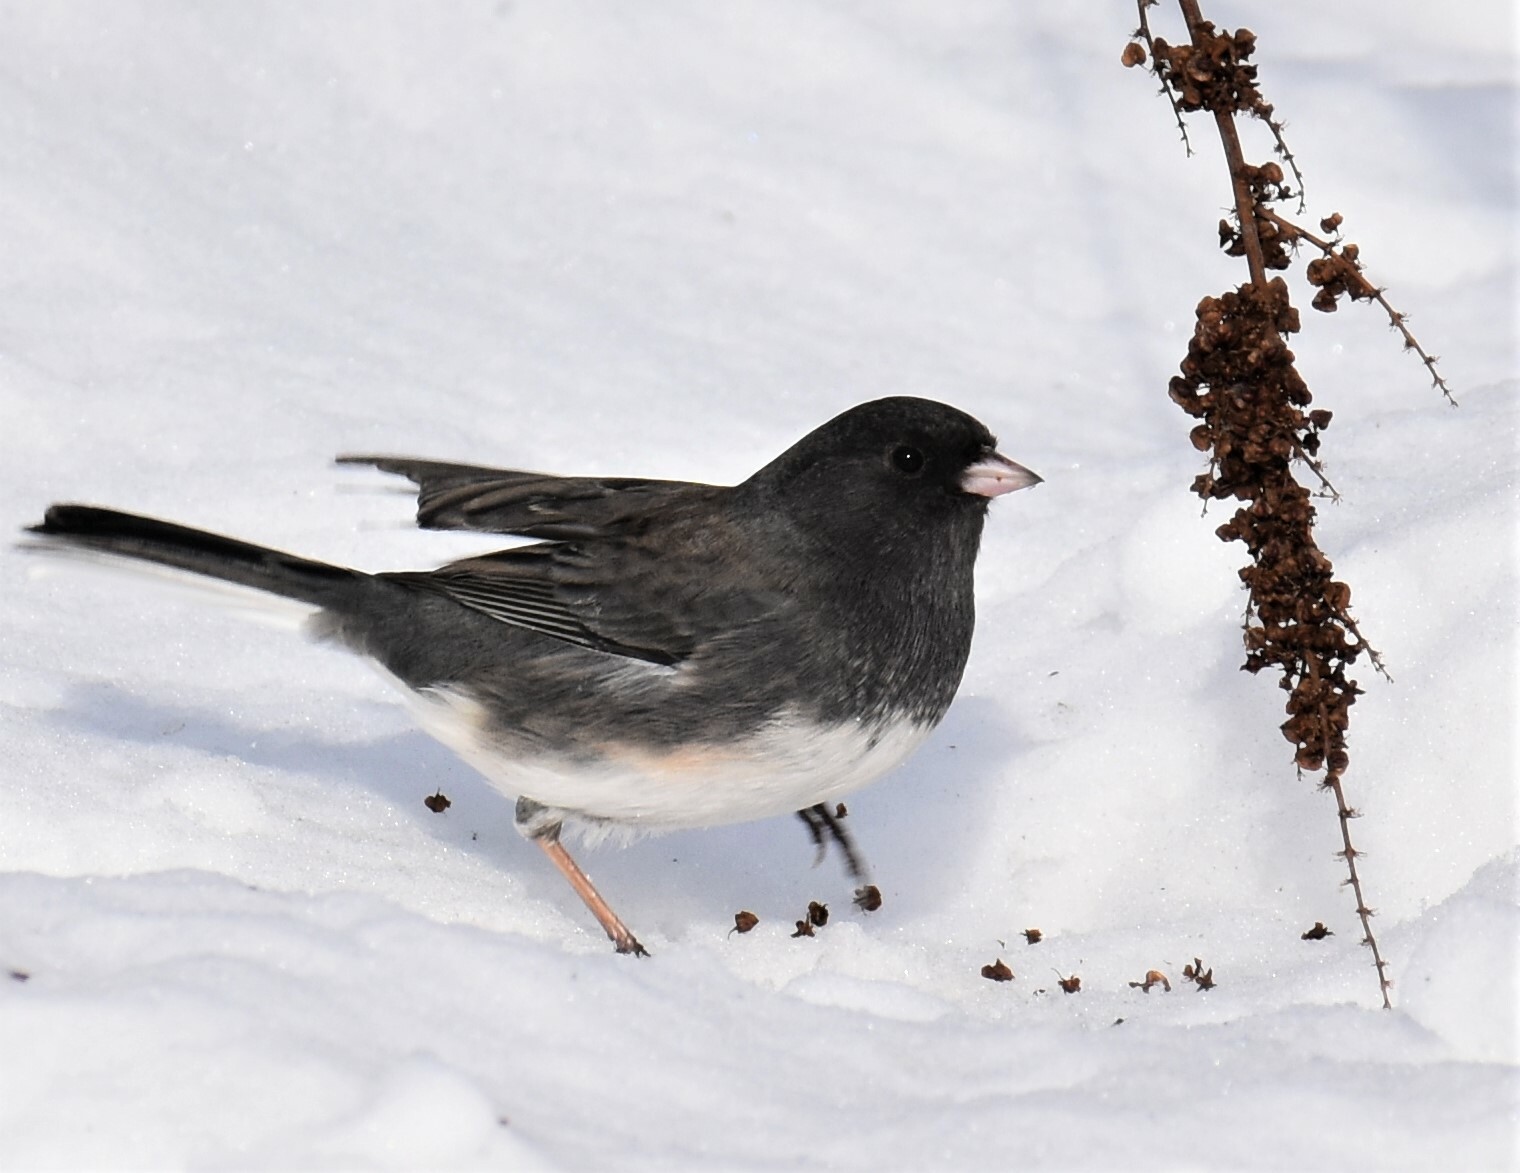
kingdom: Animalia
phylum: Chordata
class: Aves
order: Passeriformes
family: Passerellidae
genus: Junco
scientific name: Junco hyemalis
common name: Dark-eyed junco
